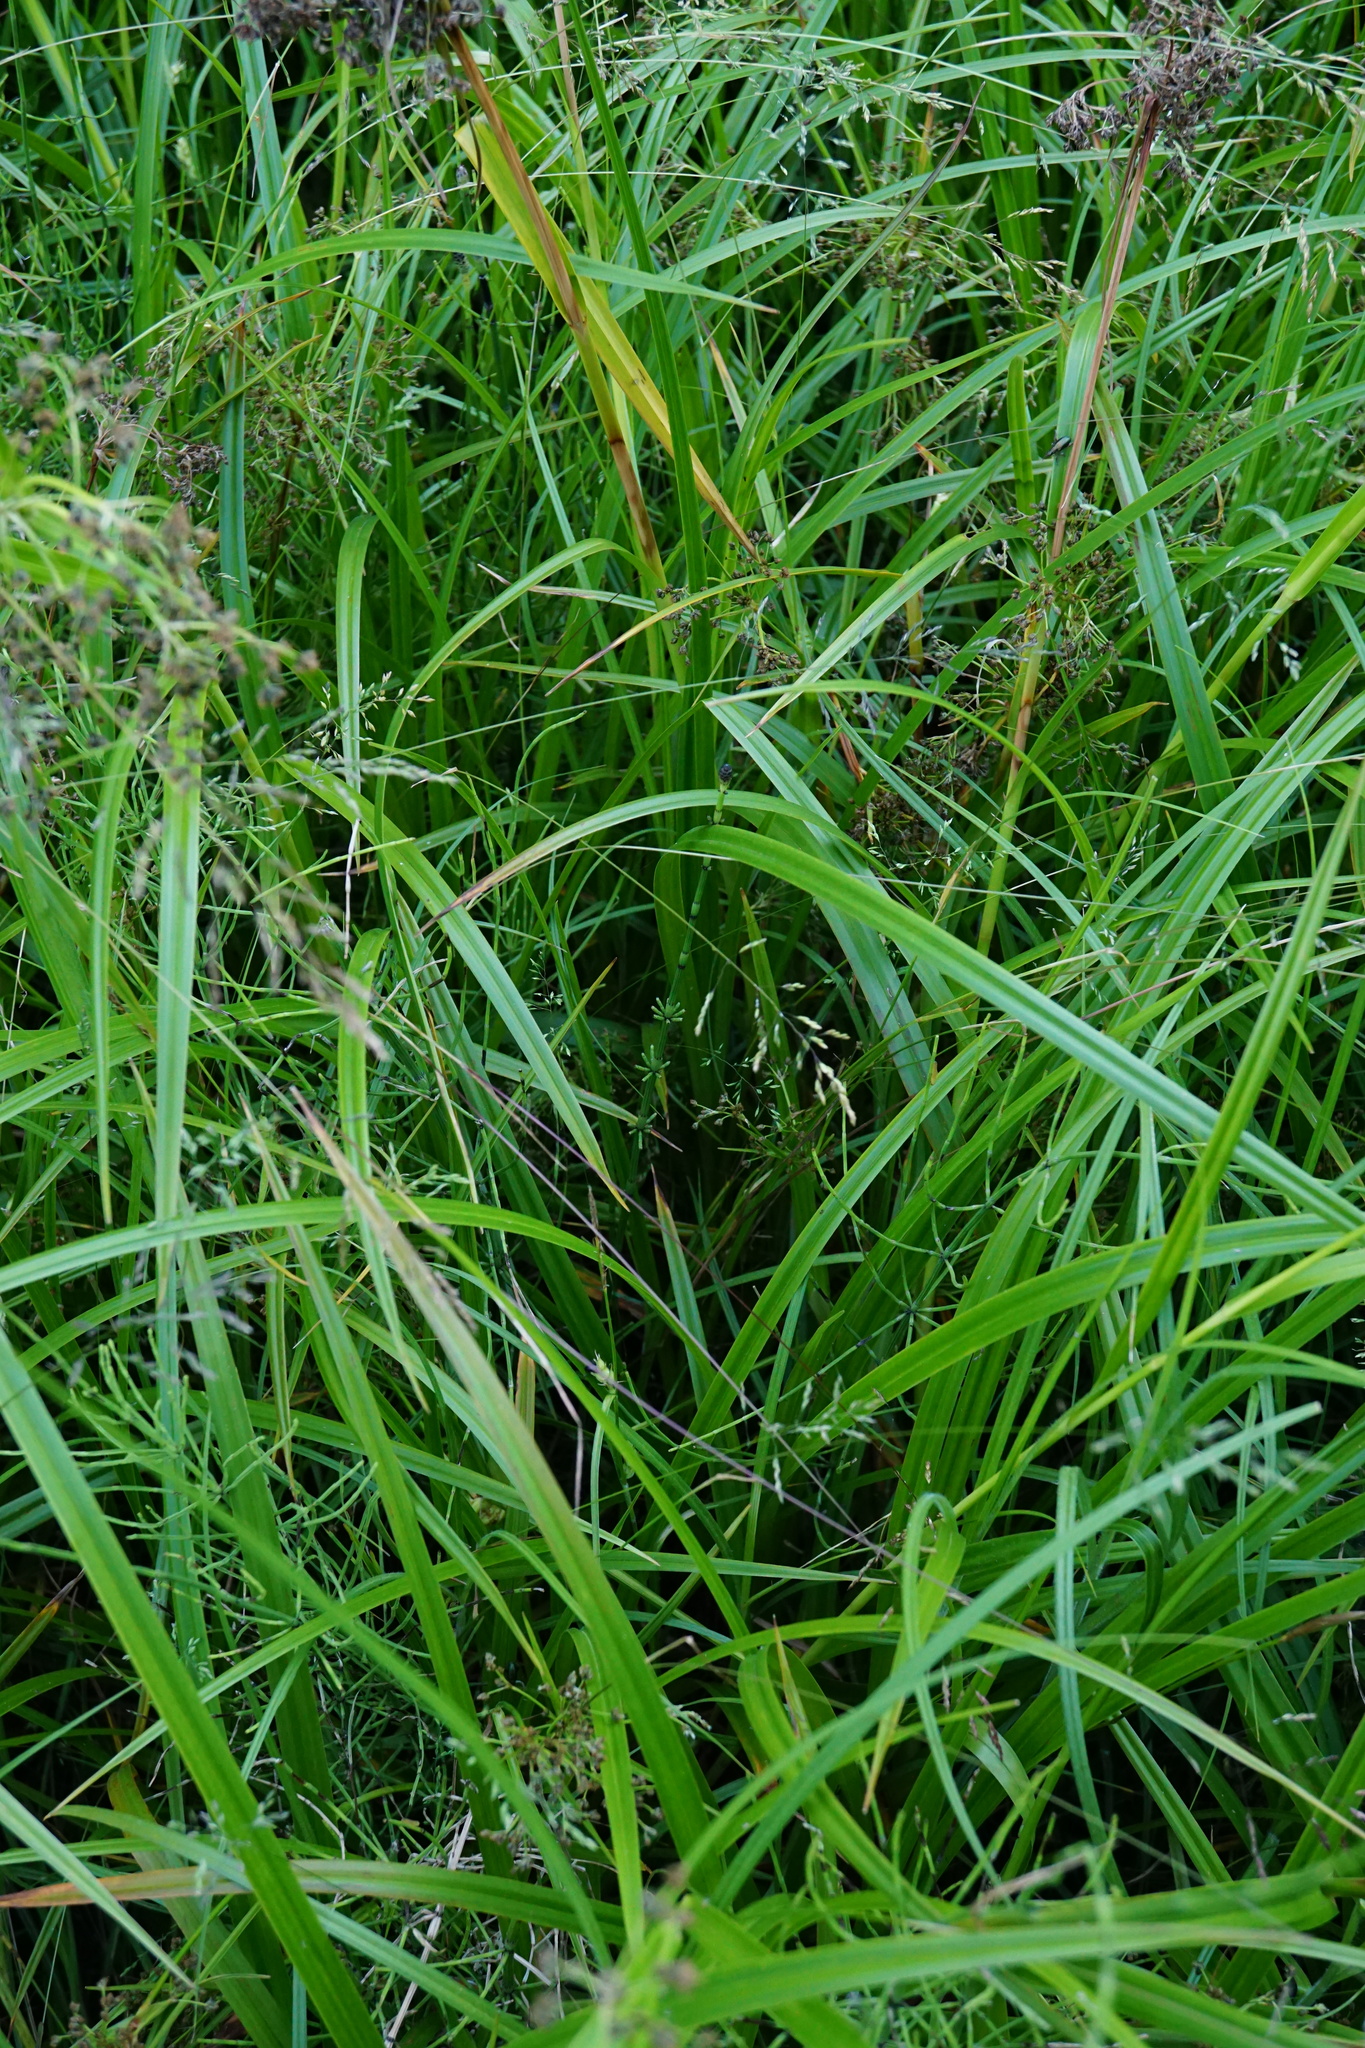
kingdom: Plantae
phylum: Tracheophyta
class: Polypodiopsida
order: Equisetales
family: Equisetaceae
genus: Equisetum
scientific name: Equisetum palustre
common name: Marsh horsetail
